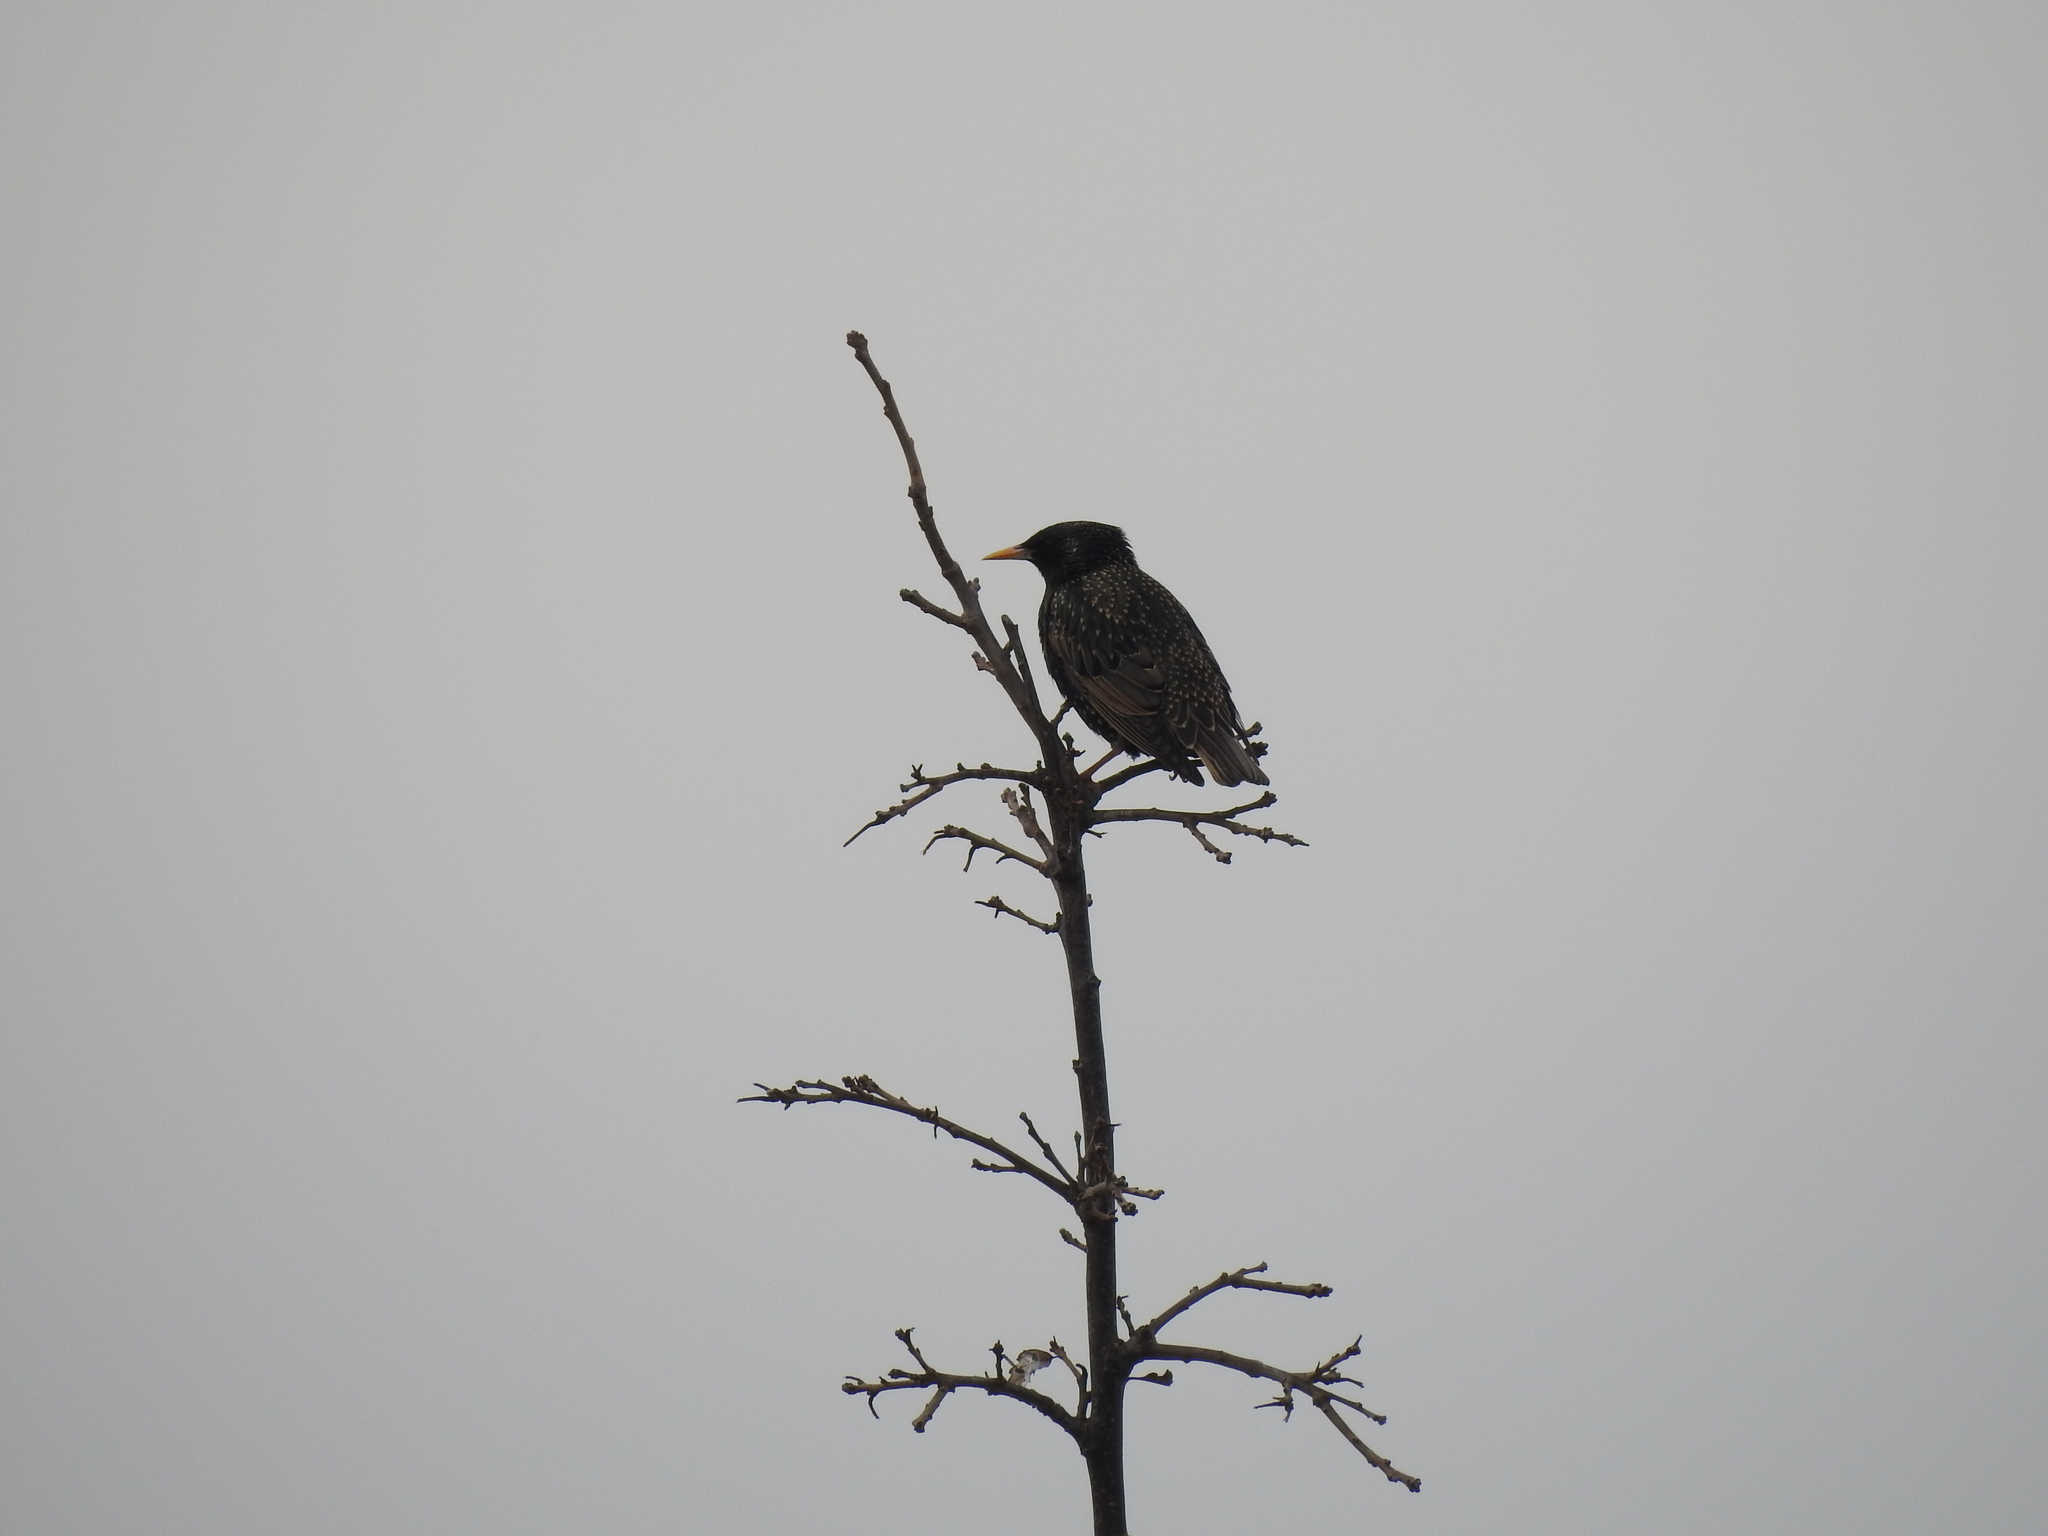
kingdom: Animalia
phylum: Chordata
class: Aves
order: Passeriformes
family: Sturnidae
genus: Sturnus
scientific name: Sturnus vulgaris
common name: Common starling
